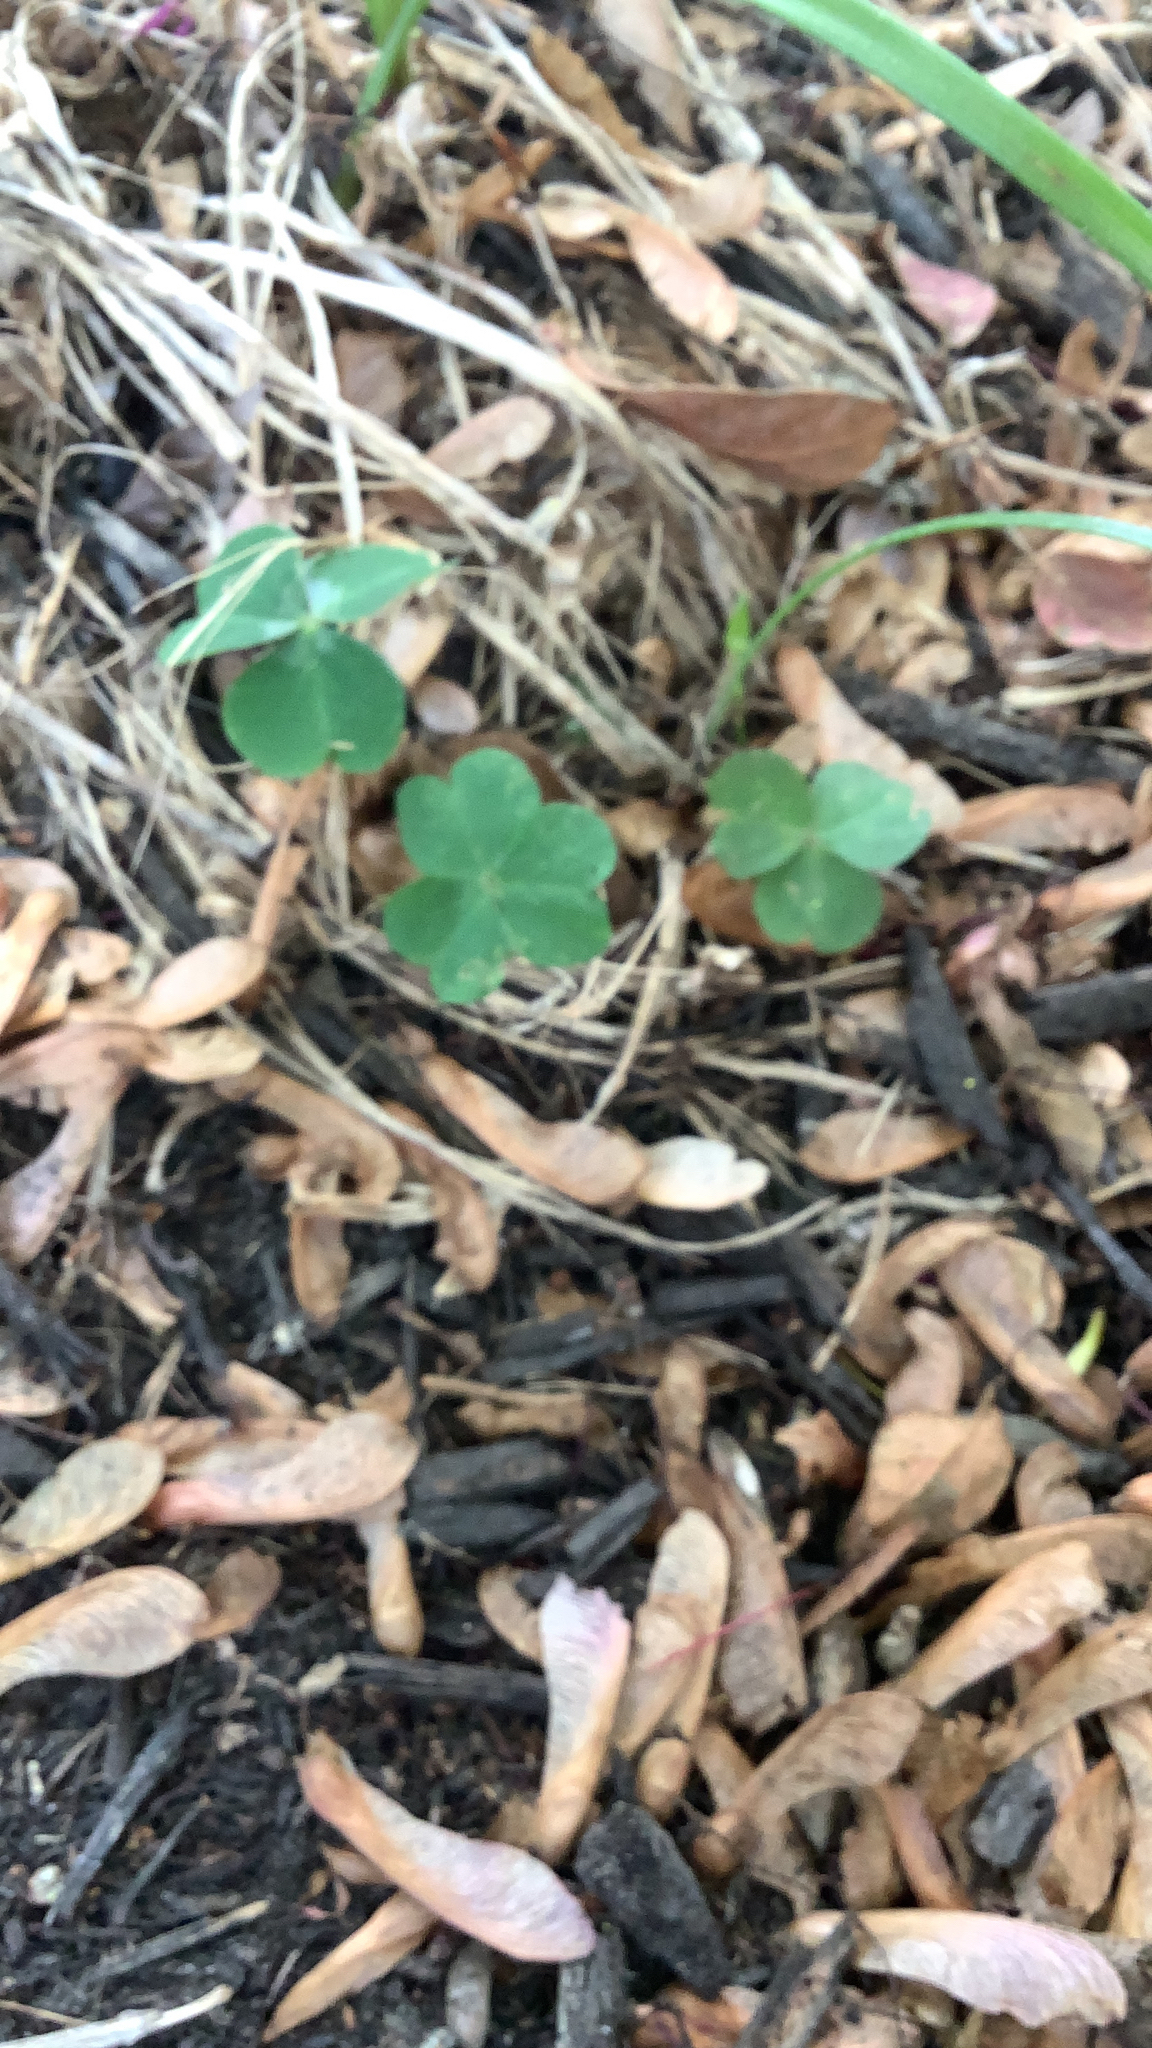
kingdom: Plantae
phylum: Tracheophyta
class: Magnoliopsida
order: Oxalidales
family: Oxalidaceae
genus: Oxalis
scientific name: Oxalis debilis
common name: Large-flowered pink-sorrel
